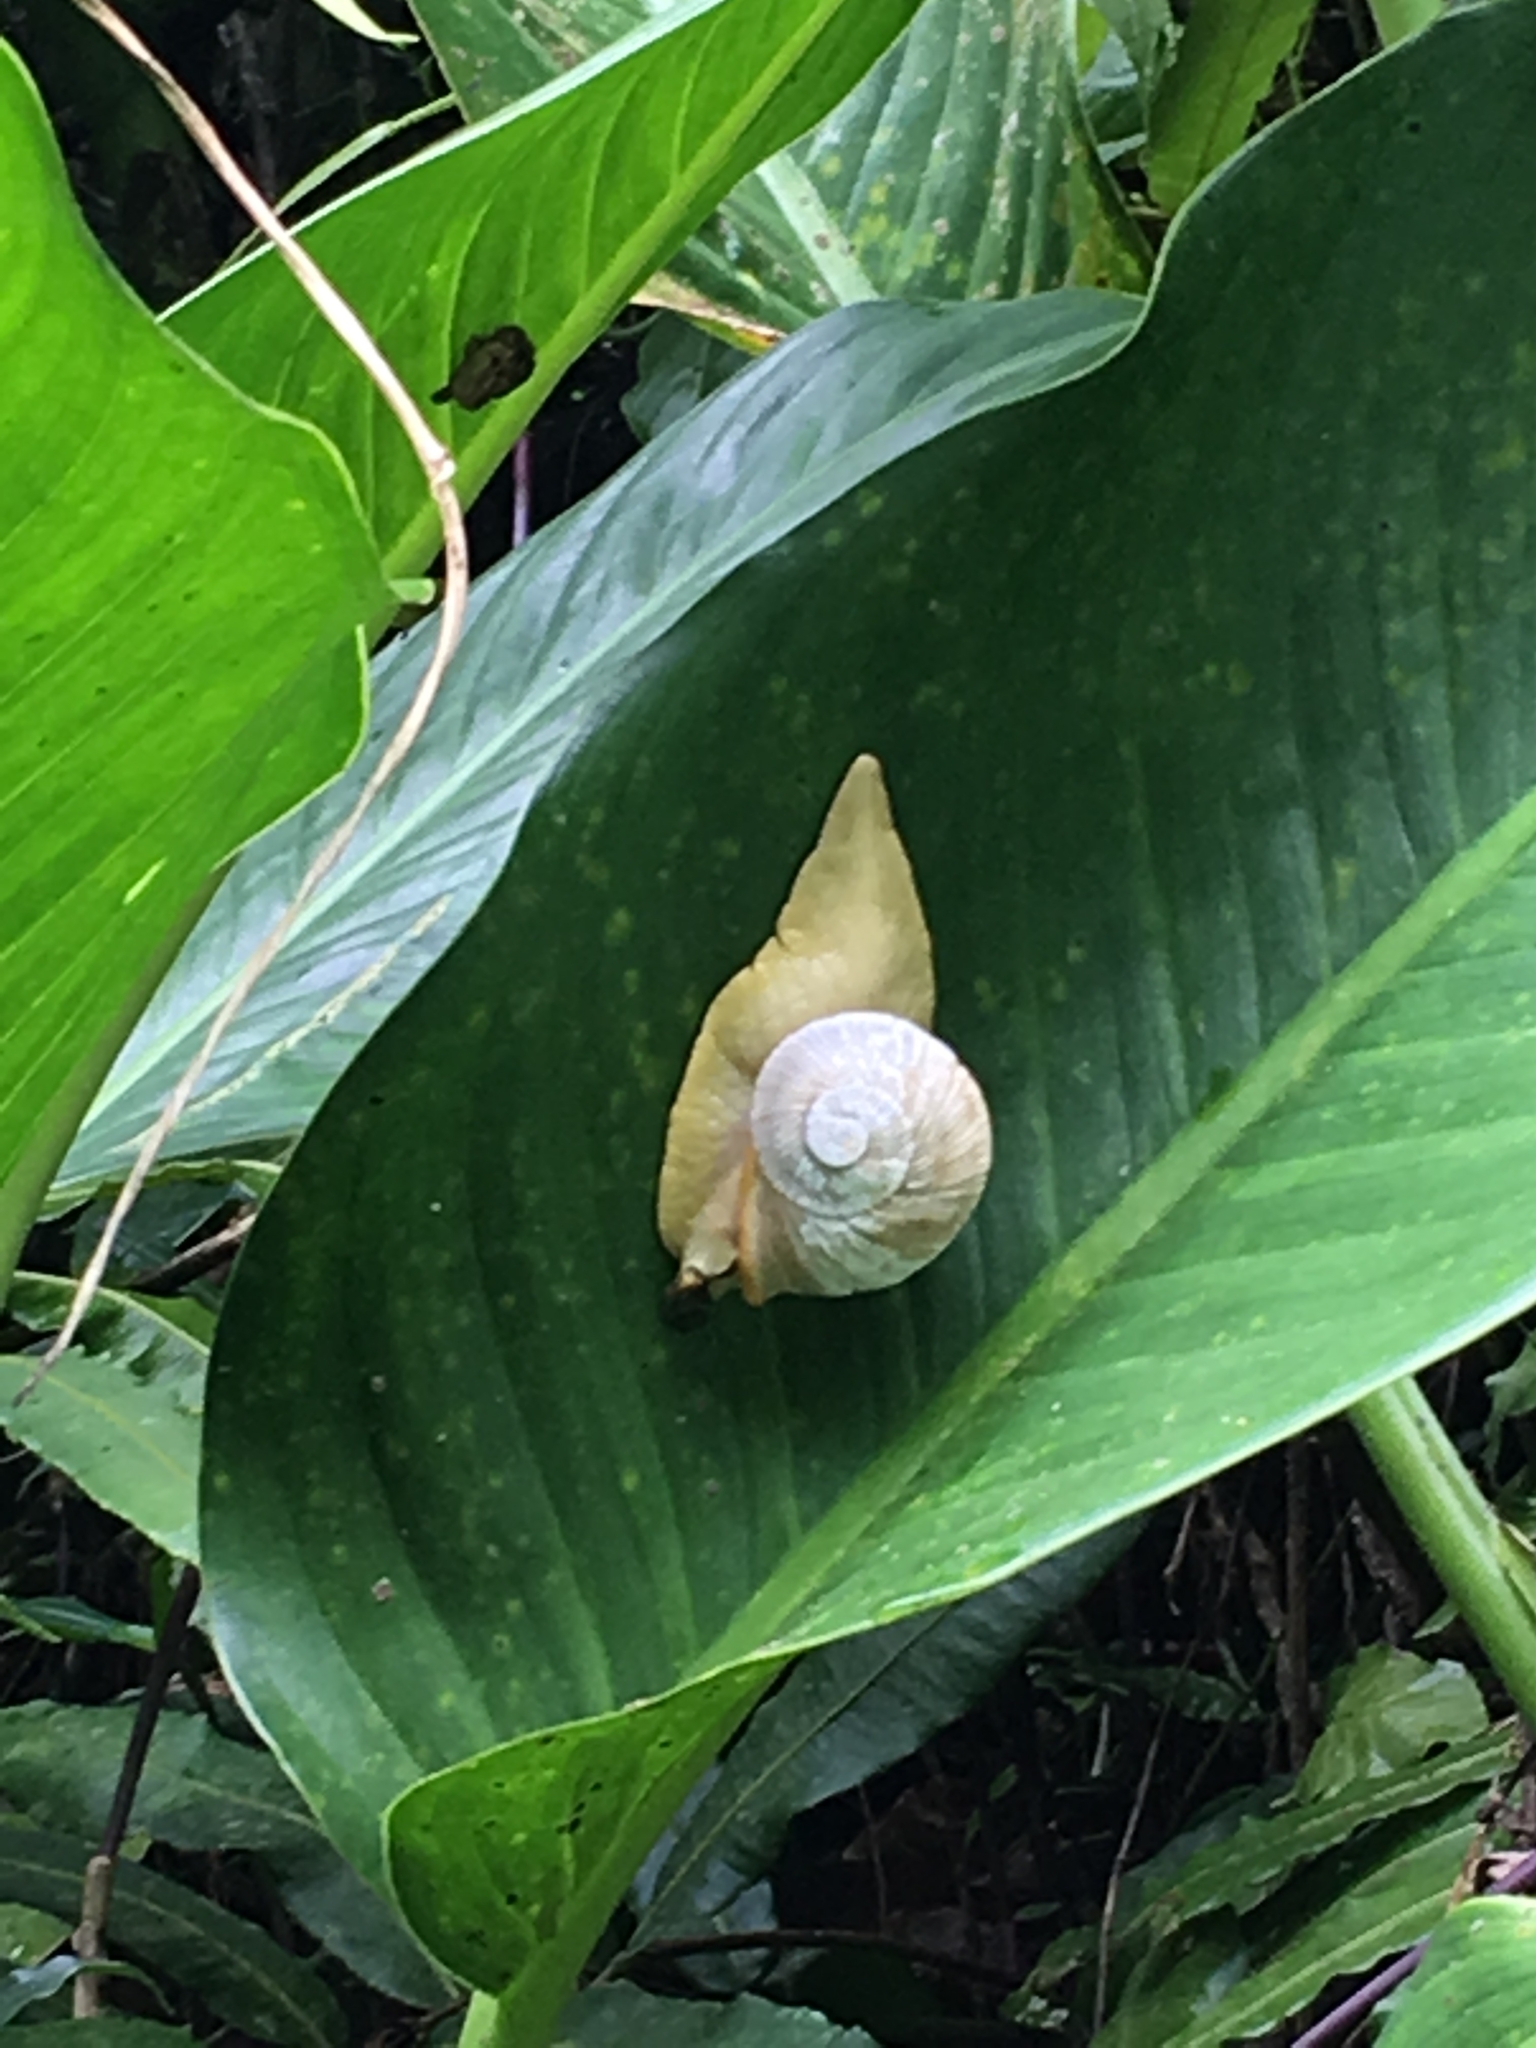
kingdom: Animalia
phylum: Mollusca
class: Gastropoda
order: Stylommatophora
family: Sagdidae
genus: Parthena
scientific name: Parthena acutangula
